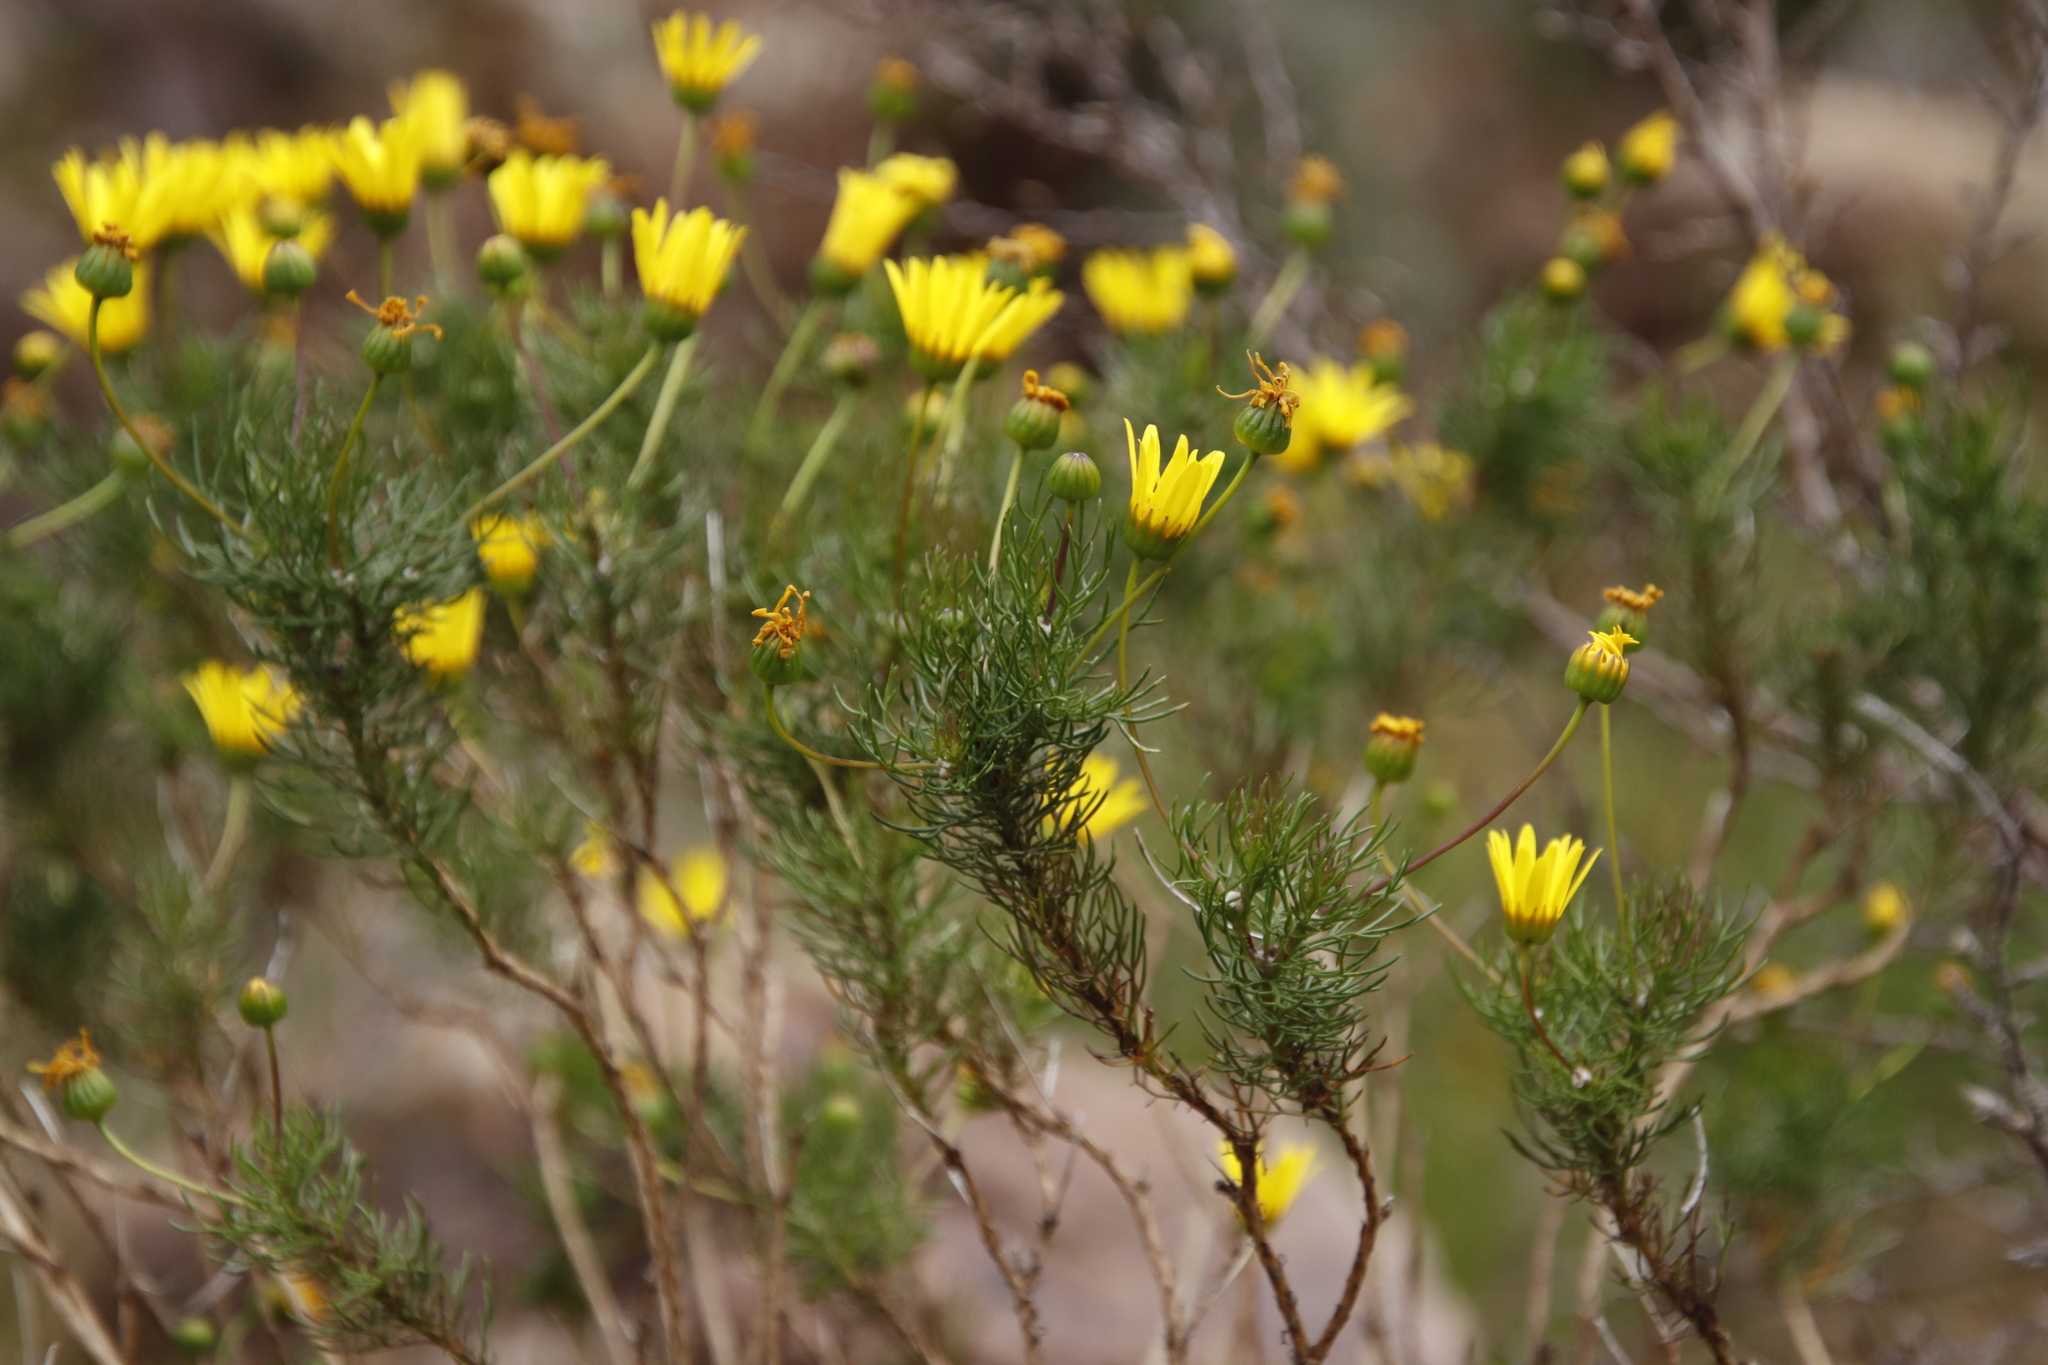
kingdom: Plantae
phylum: Tracheophyta
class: Magnoliopsida
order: Asterales
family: Asteraceae
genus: Euryops
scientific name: Euryops abrotanifolius
